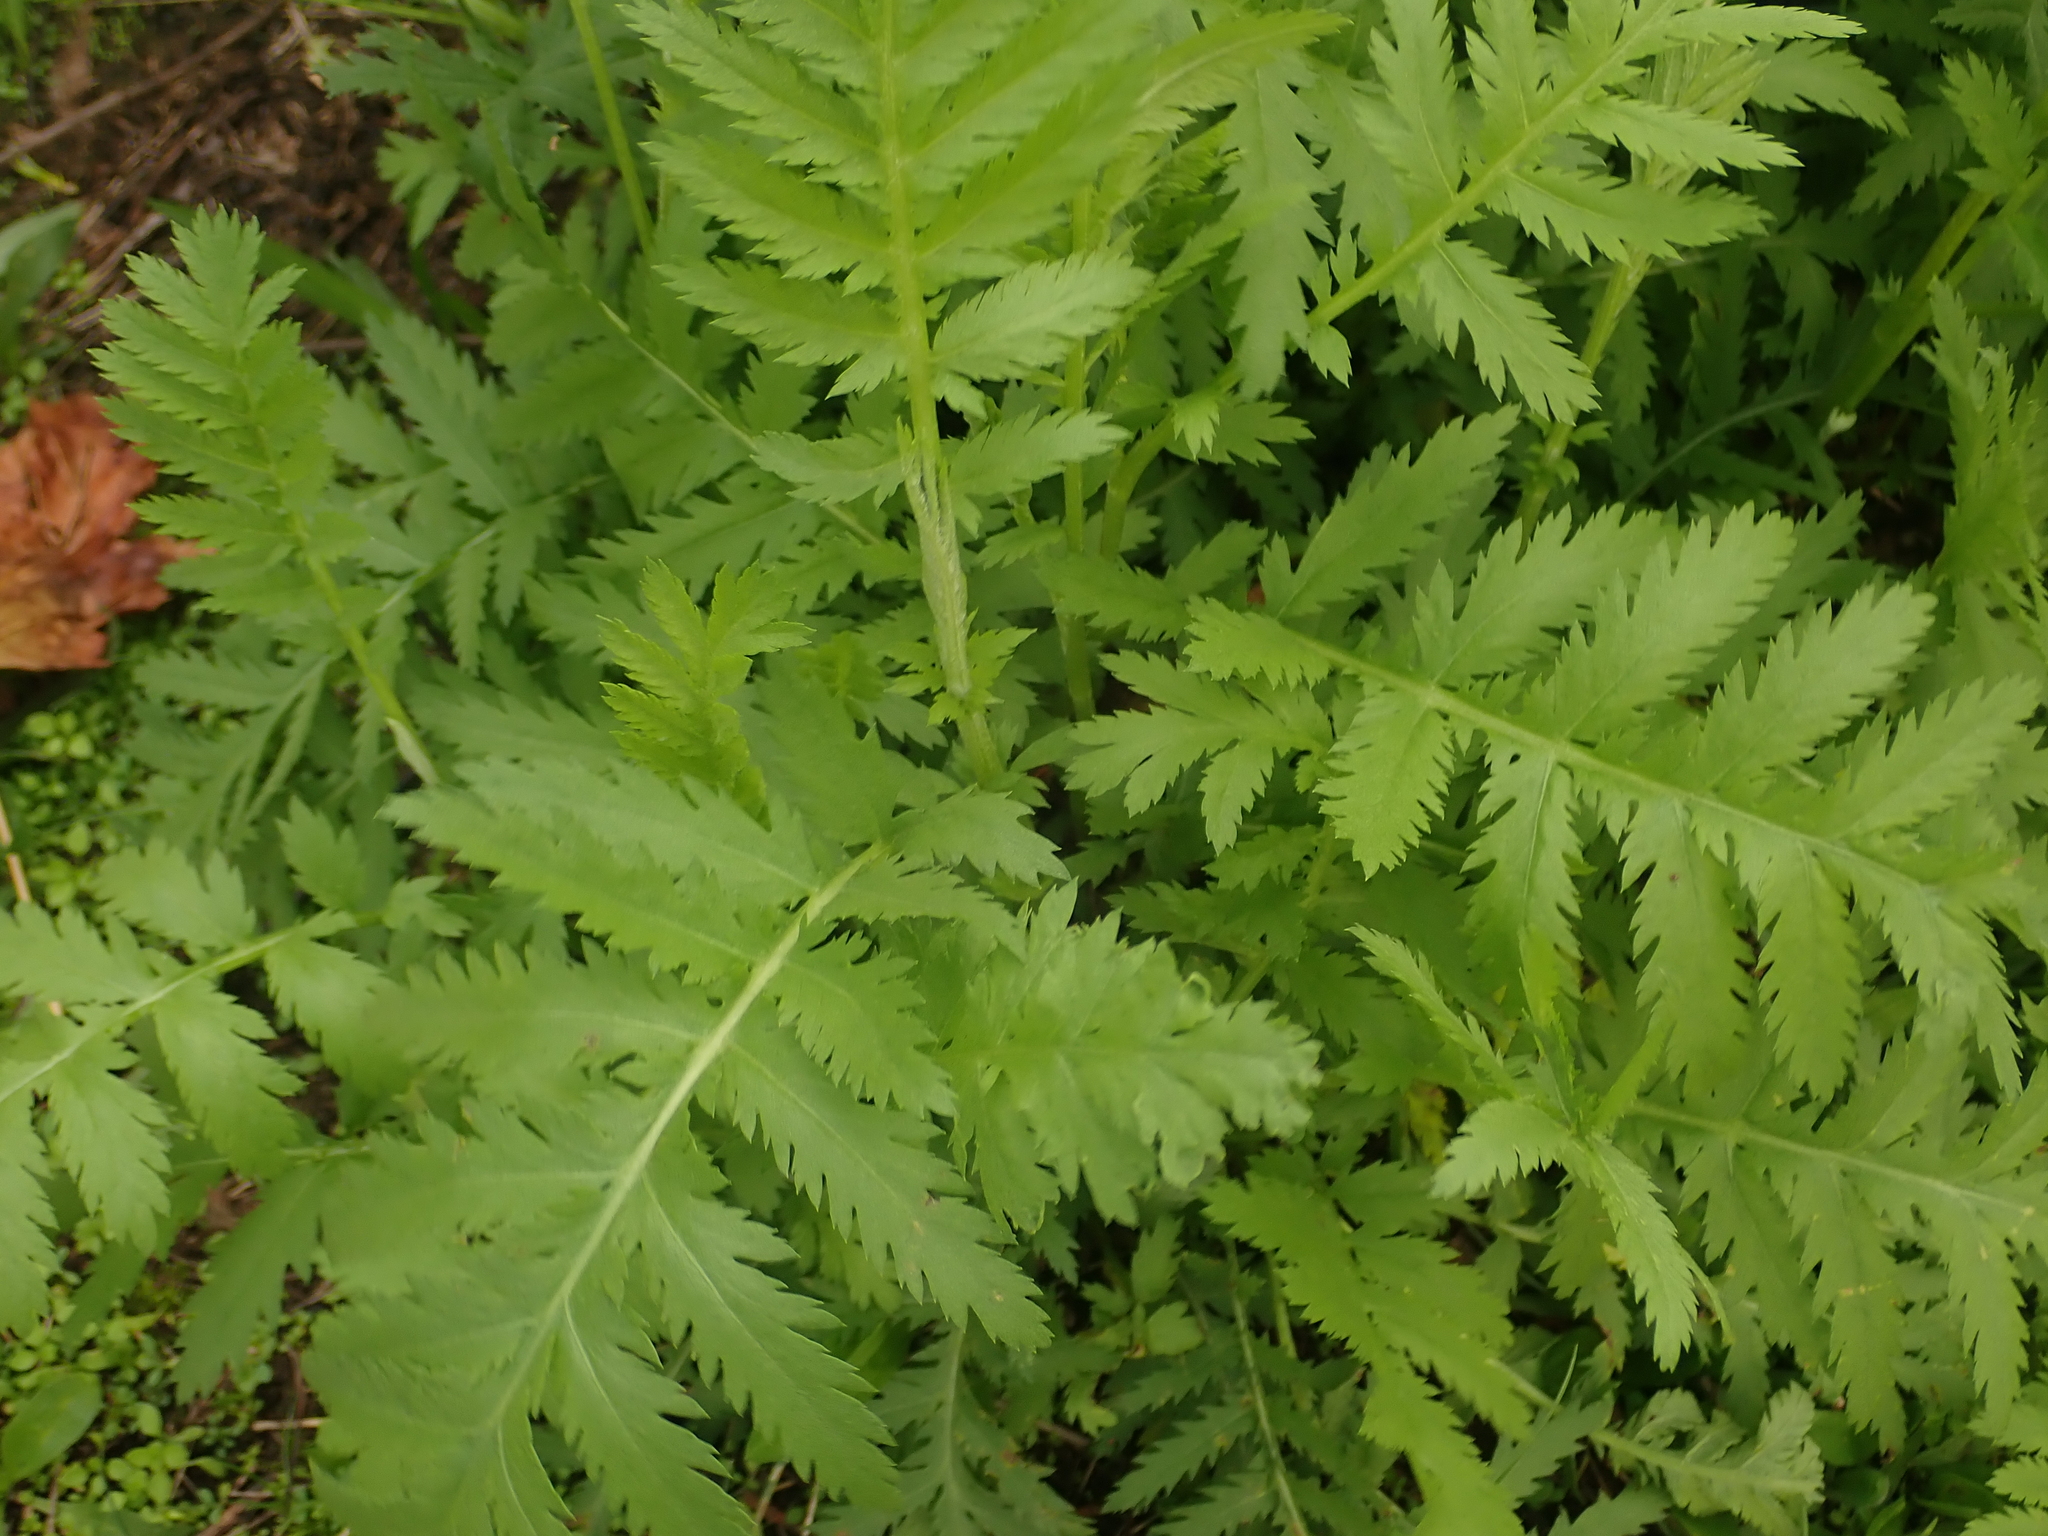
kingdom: Plantae
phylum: Tracheophyta
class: Magnoliopsida
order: Asterales
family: Asteraceae
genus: Tanacetum
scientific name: Tanacetum vulgare
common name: Common tansy
